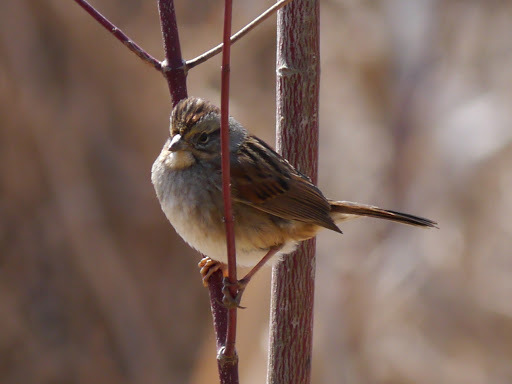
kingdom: Animalia
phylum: Chordata
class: Aves
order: Passeriformes
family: Passerellidae
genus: Melospiza
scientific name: Melospiza georgiana
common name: Swamp sparrow
